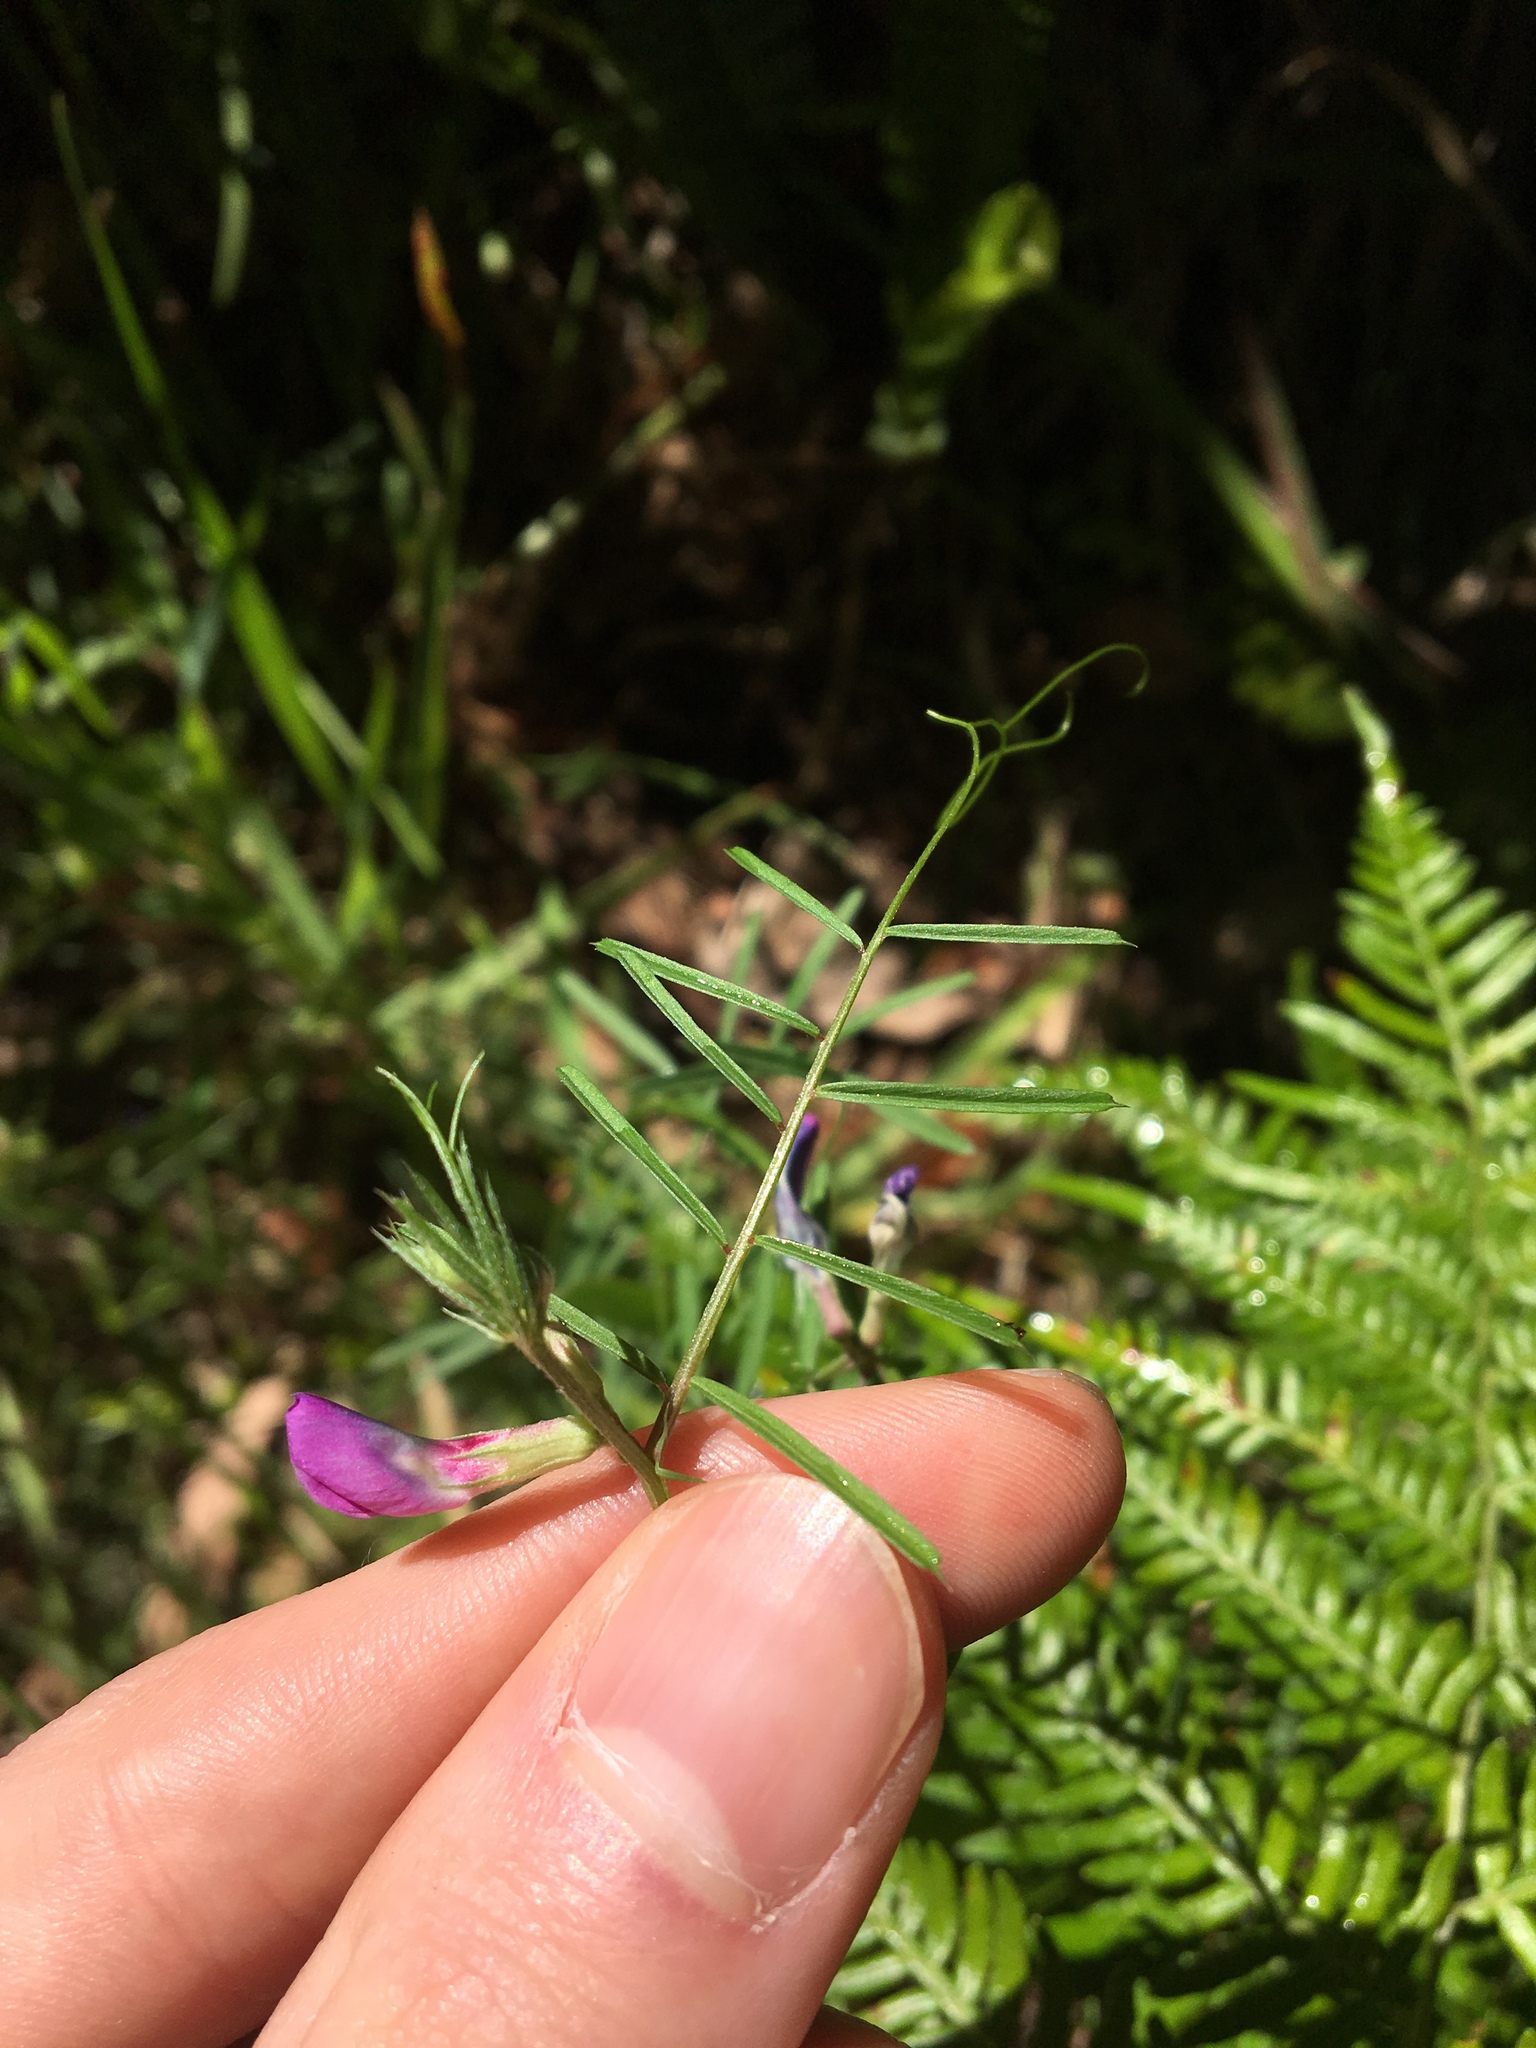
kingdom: Plantae
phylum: Tracheophyta
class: Magnoliopsida
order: Fabales
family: Fabaceae
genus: Vicia
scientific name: Vicia sativa
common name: Garden vetch
